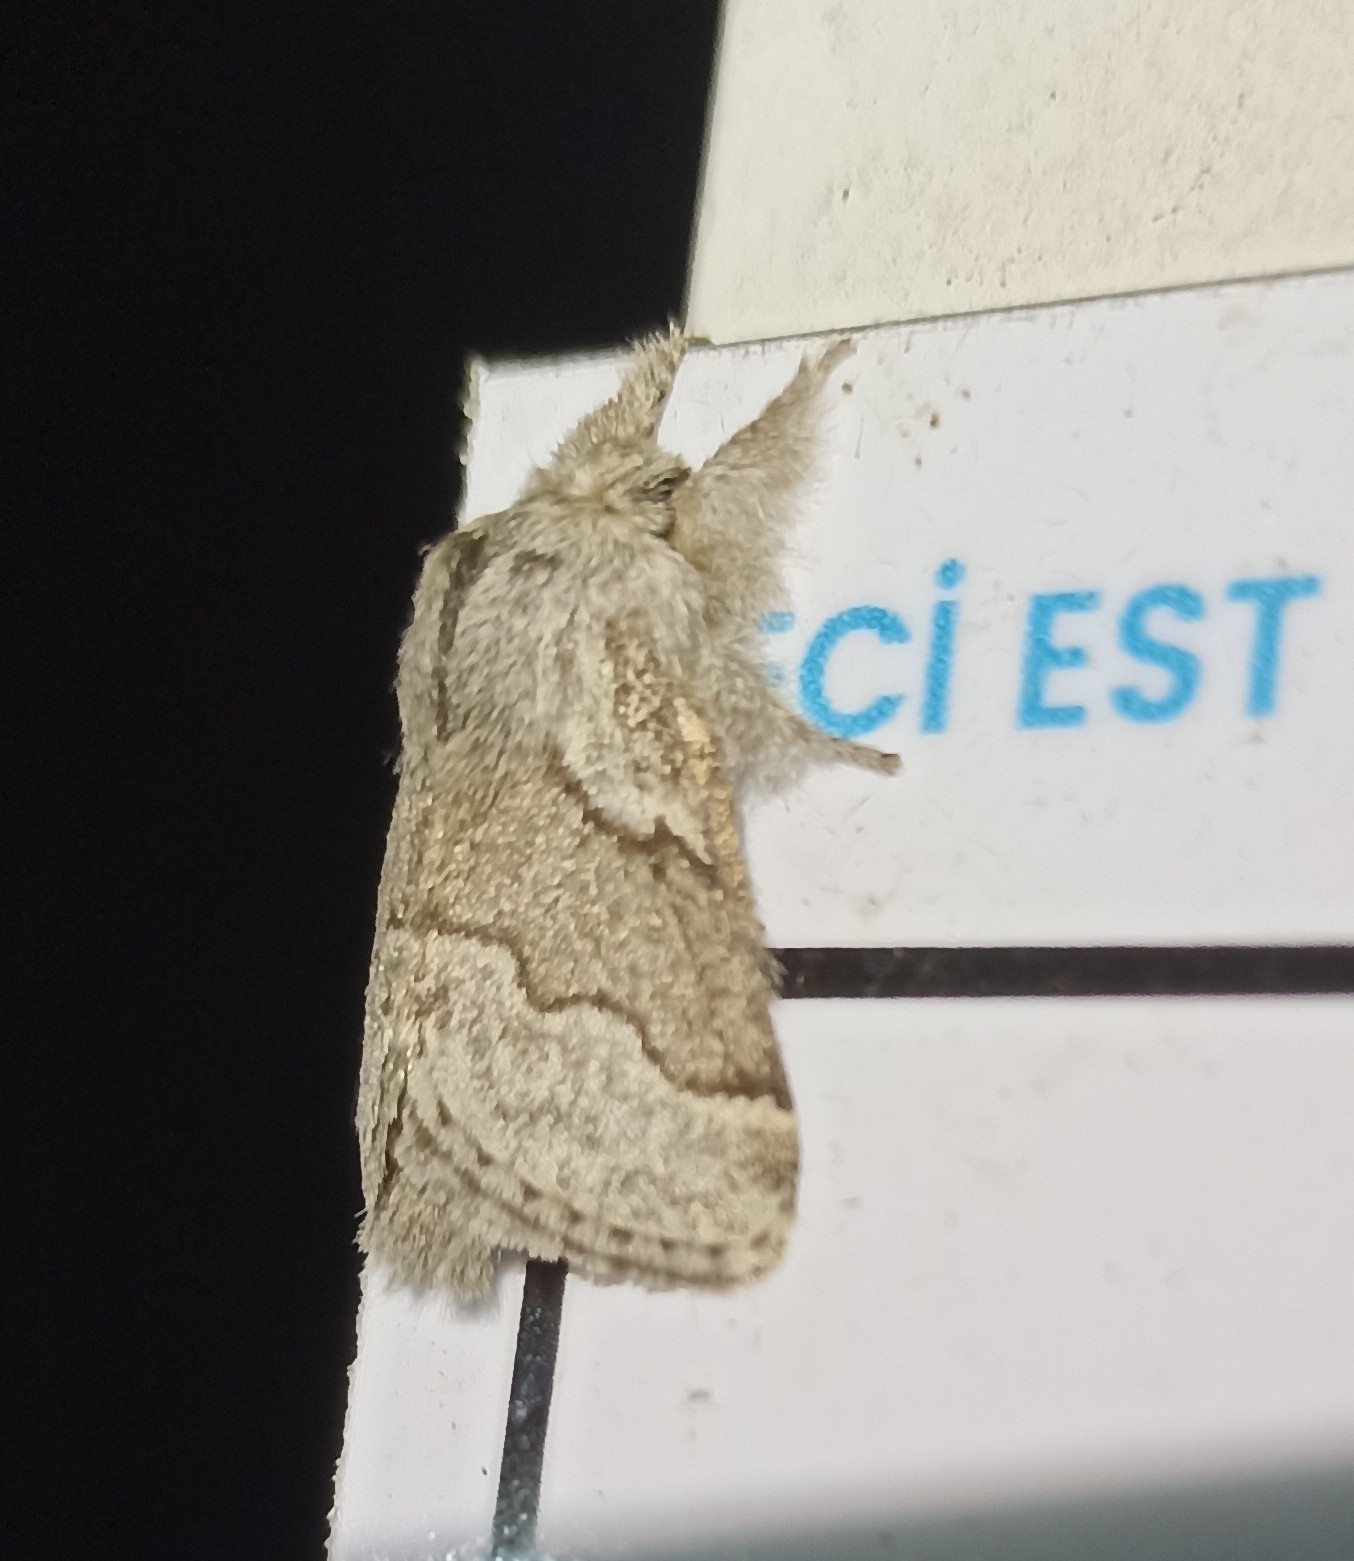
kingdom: Animalia
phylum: Arthropoda
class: Insecta
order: Lepidoptera
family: Lasiocampidae
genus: Trichiura
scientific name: Trichiura crataegi
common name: Pale eggar
